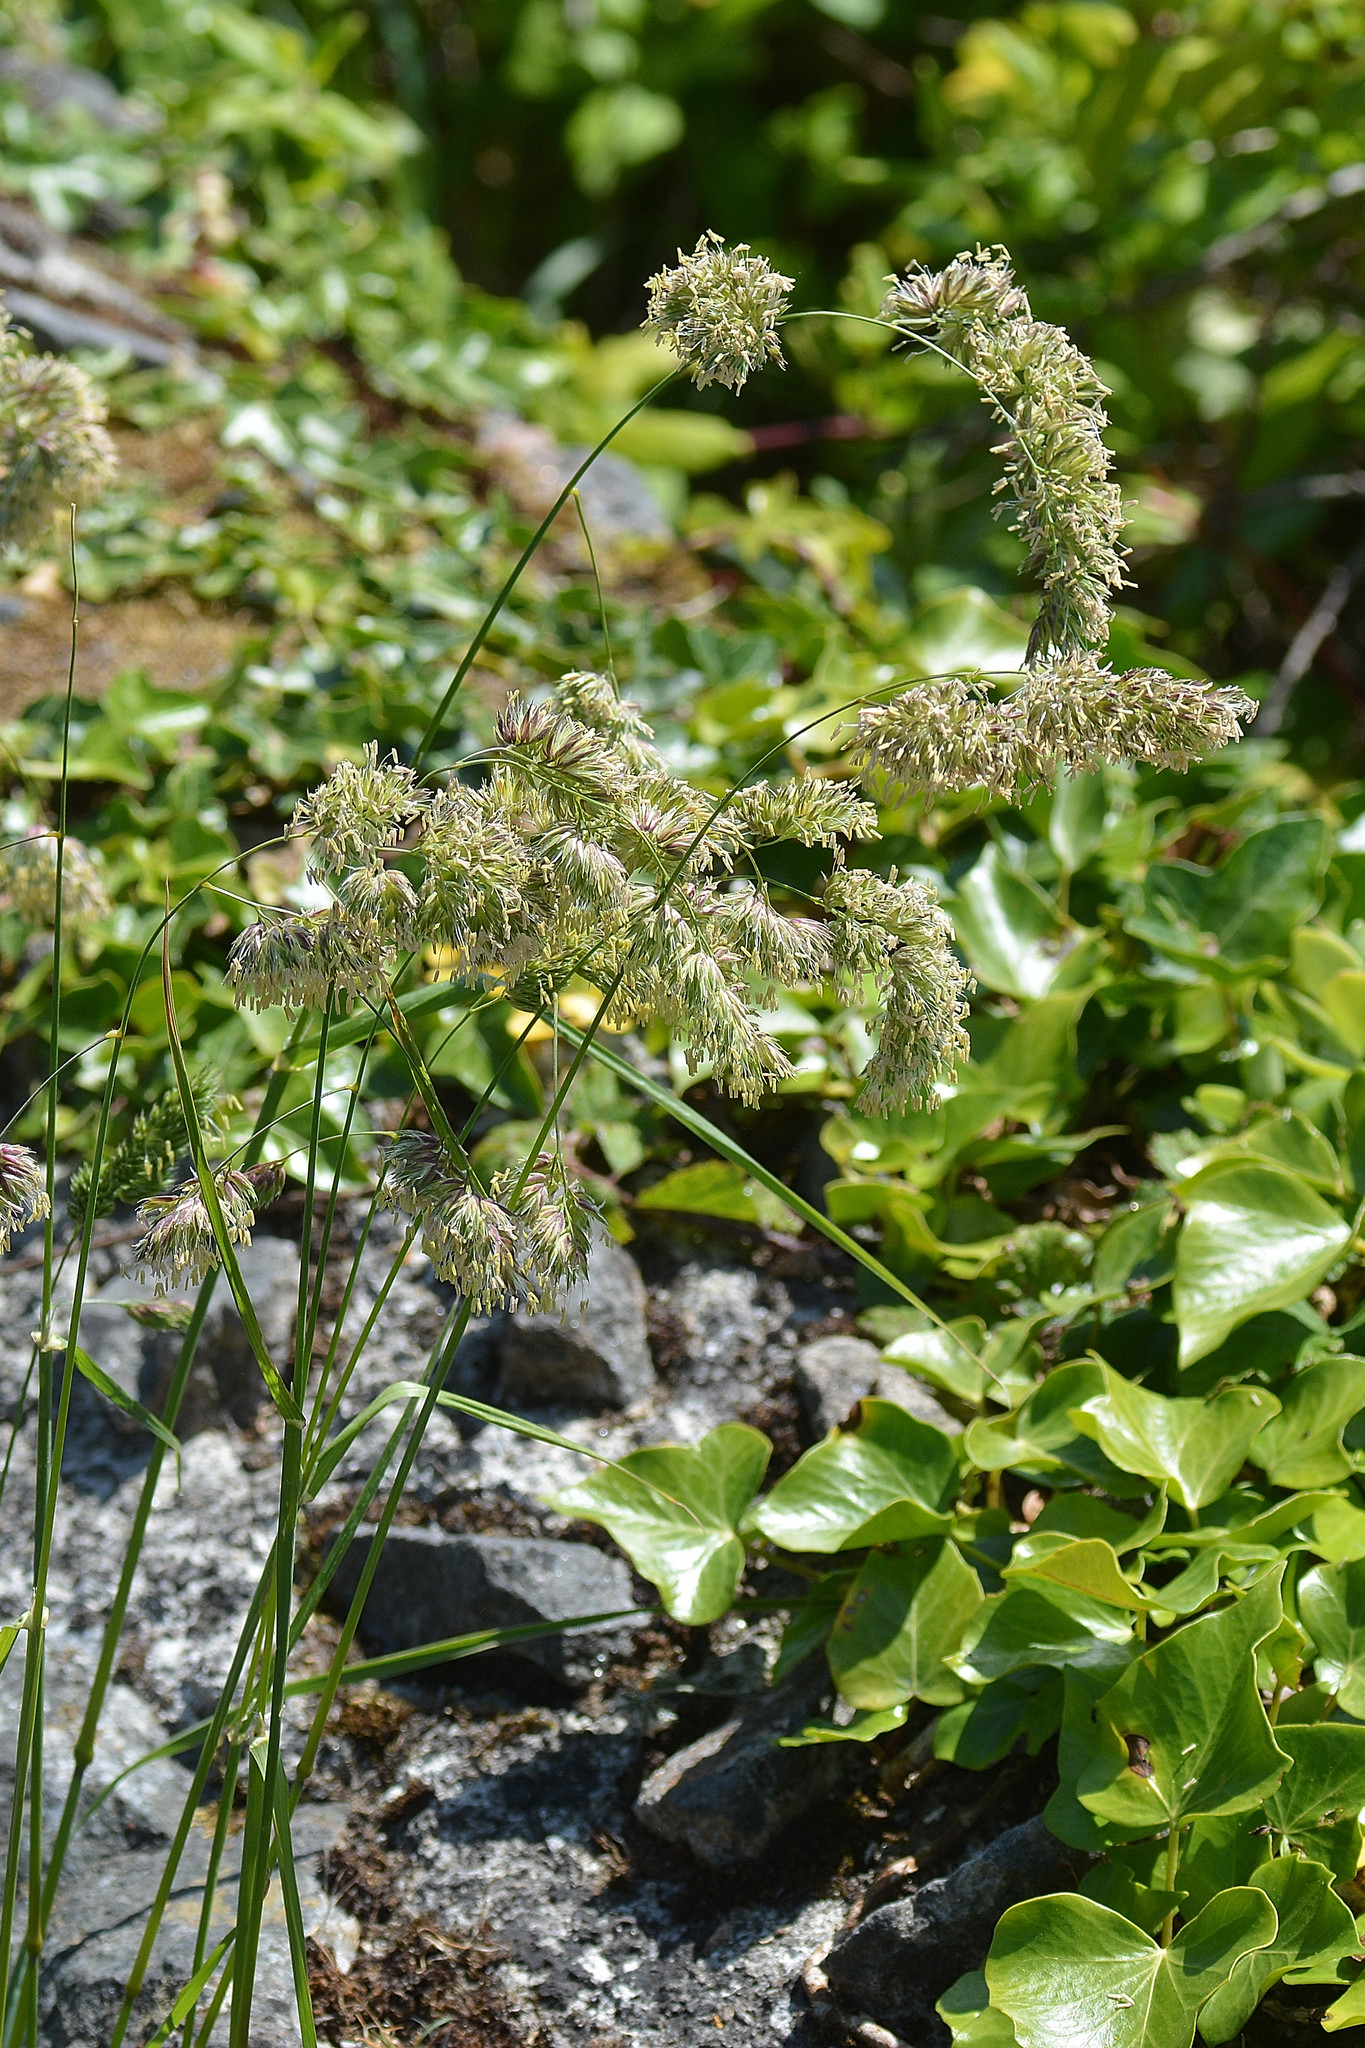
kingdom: Plantae
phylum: Tracheophyta
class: Liliopsida
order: Poales
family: Poaceae
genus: Dactylis
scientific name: Dactylis glomerata
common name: Orchardgrass
